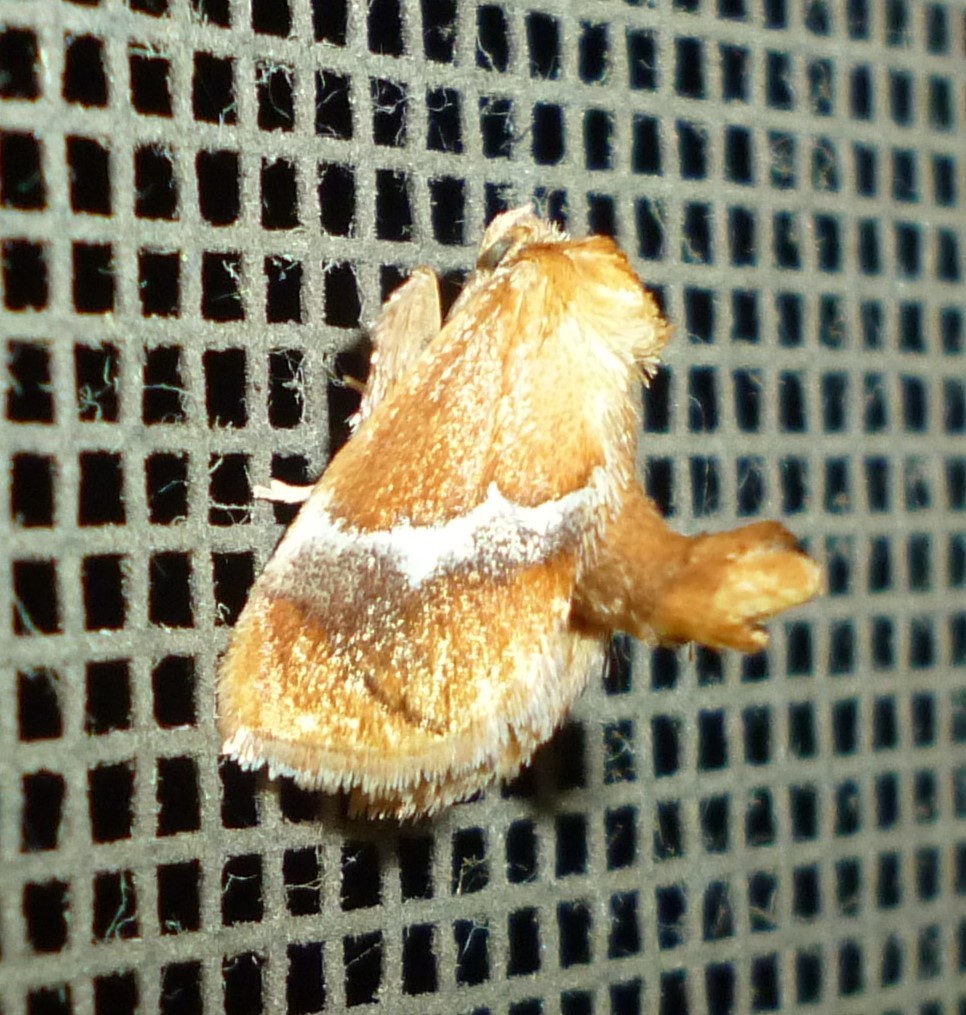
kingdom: Animalia
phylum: Arthropoda
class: Insecta
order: Lepidoptera
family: Limacodidae
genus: Lithacodes
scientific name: Lithacodes fasciola
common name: Yellow-shouldered slug moth
